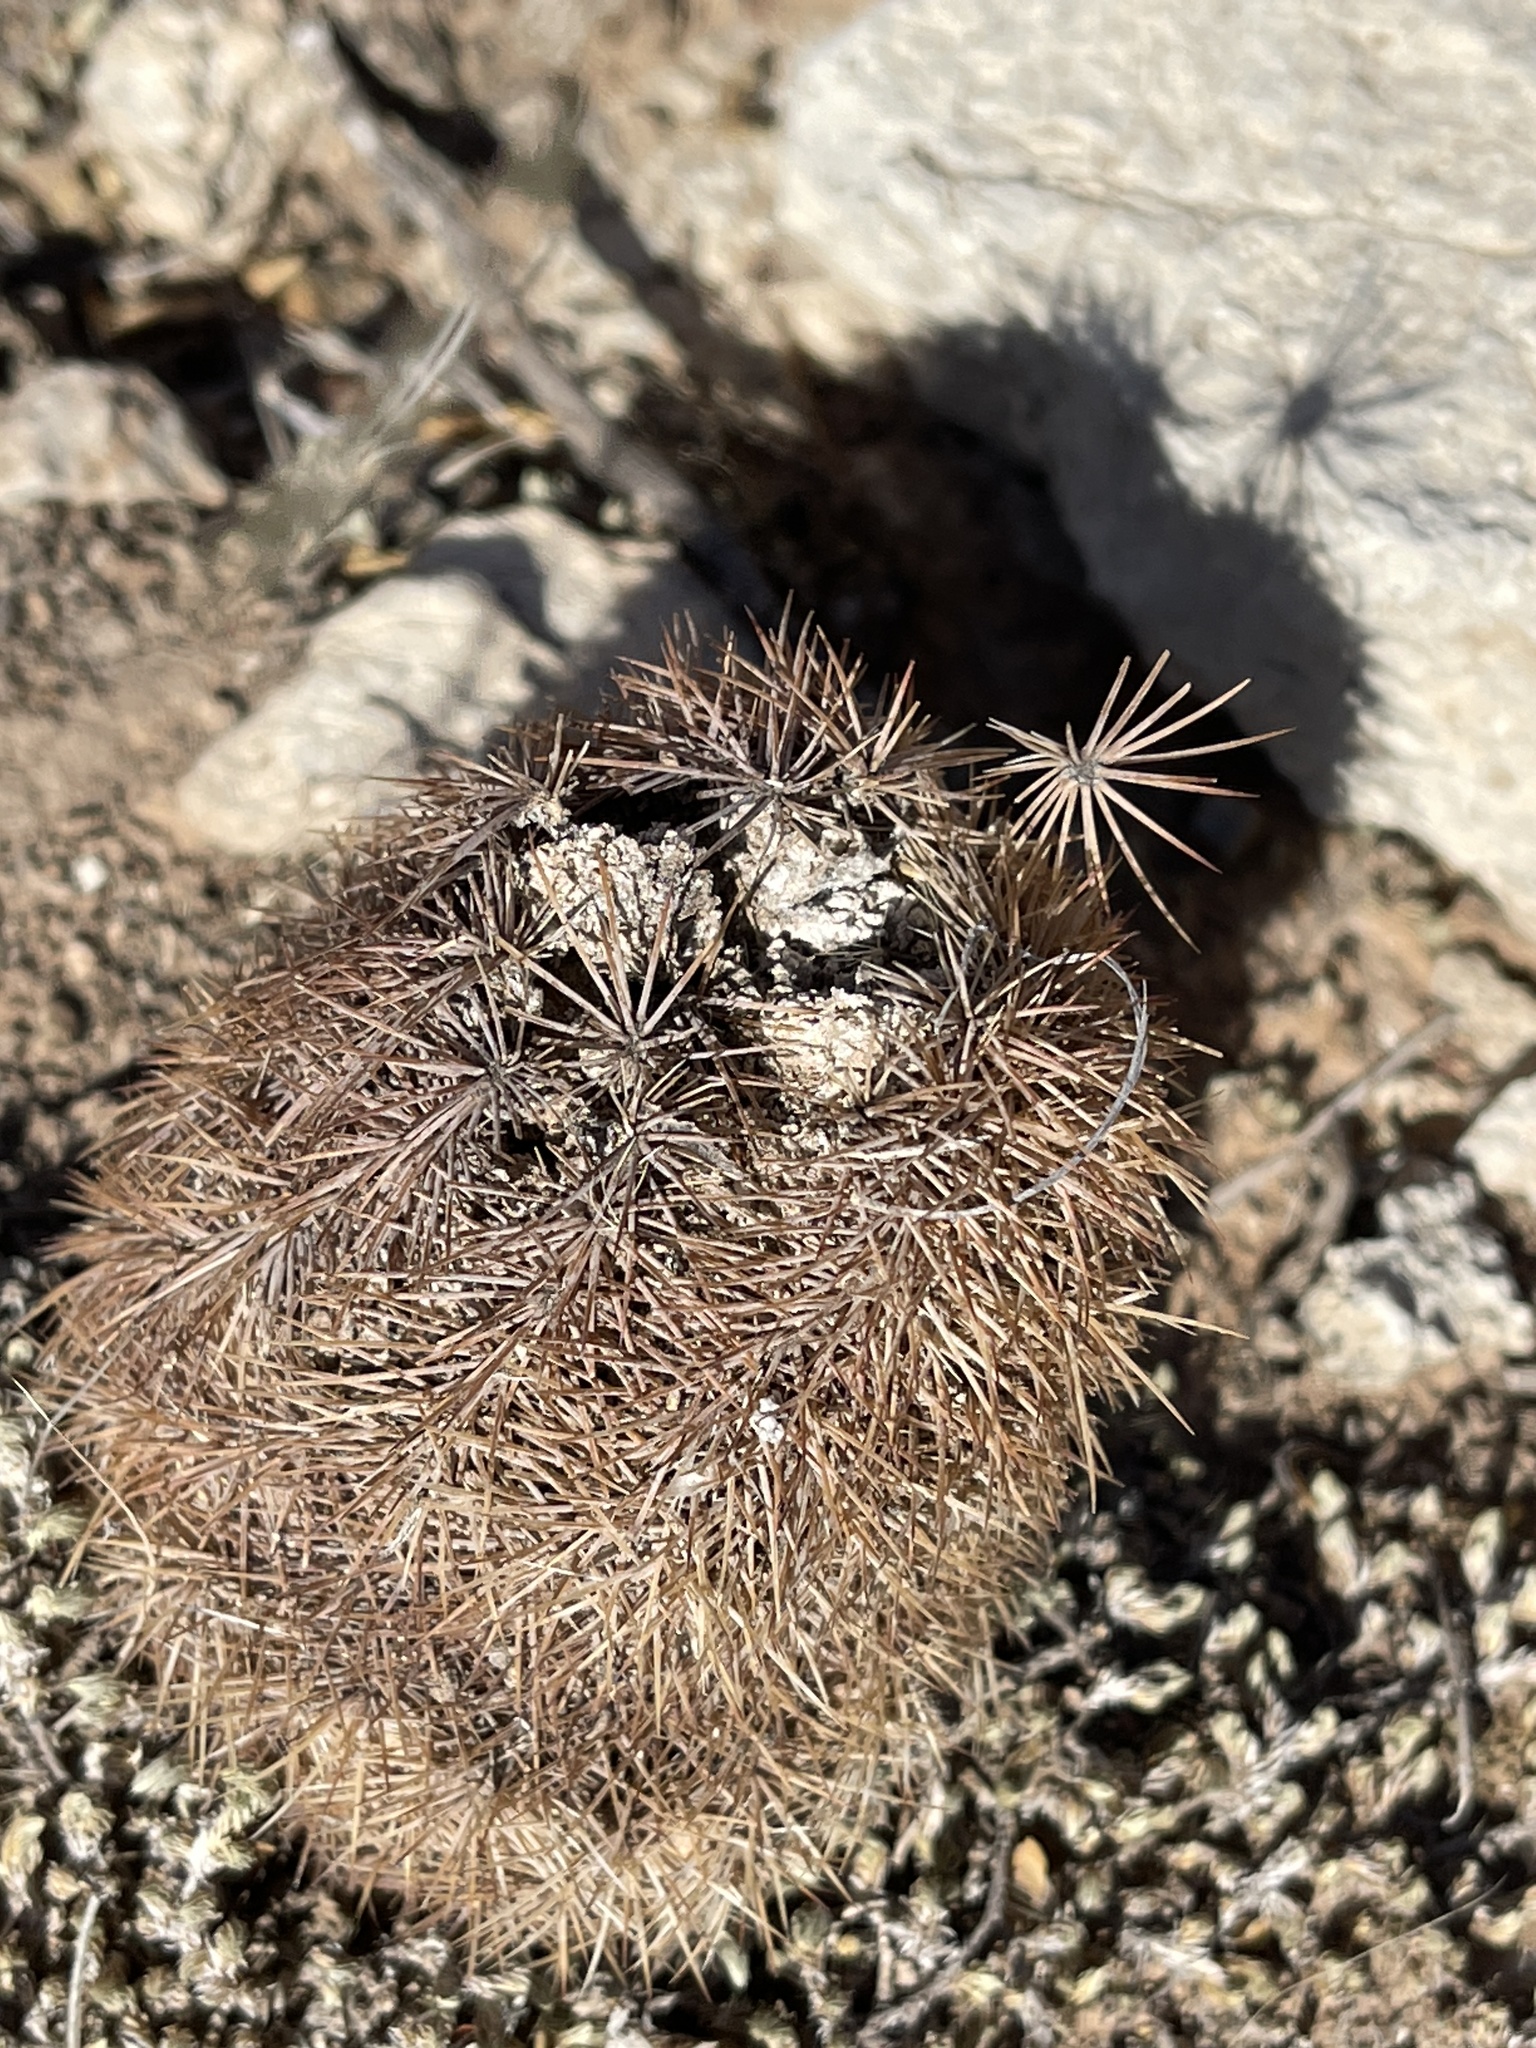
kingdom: Plantae
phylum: Tracheophyta
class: Magnoliopsida
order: Caryophyllales
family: Cactaceae
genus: Echinocereus
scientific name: Echinocereus dasyacanthus
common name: Spiny hedgehog cactus
